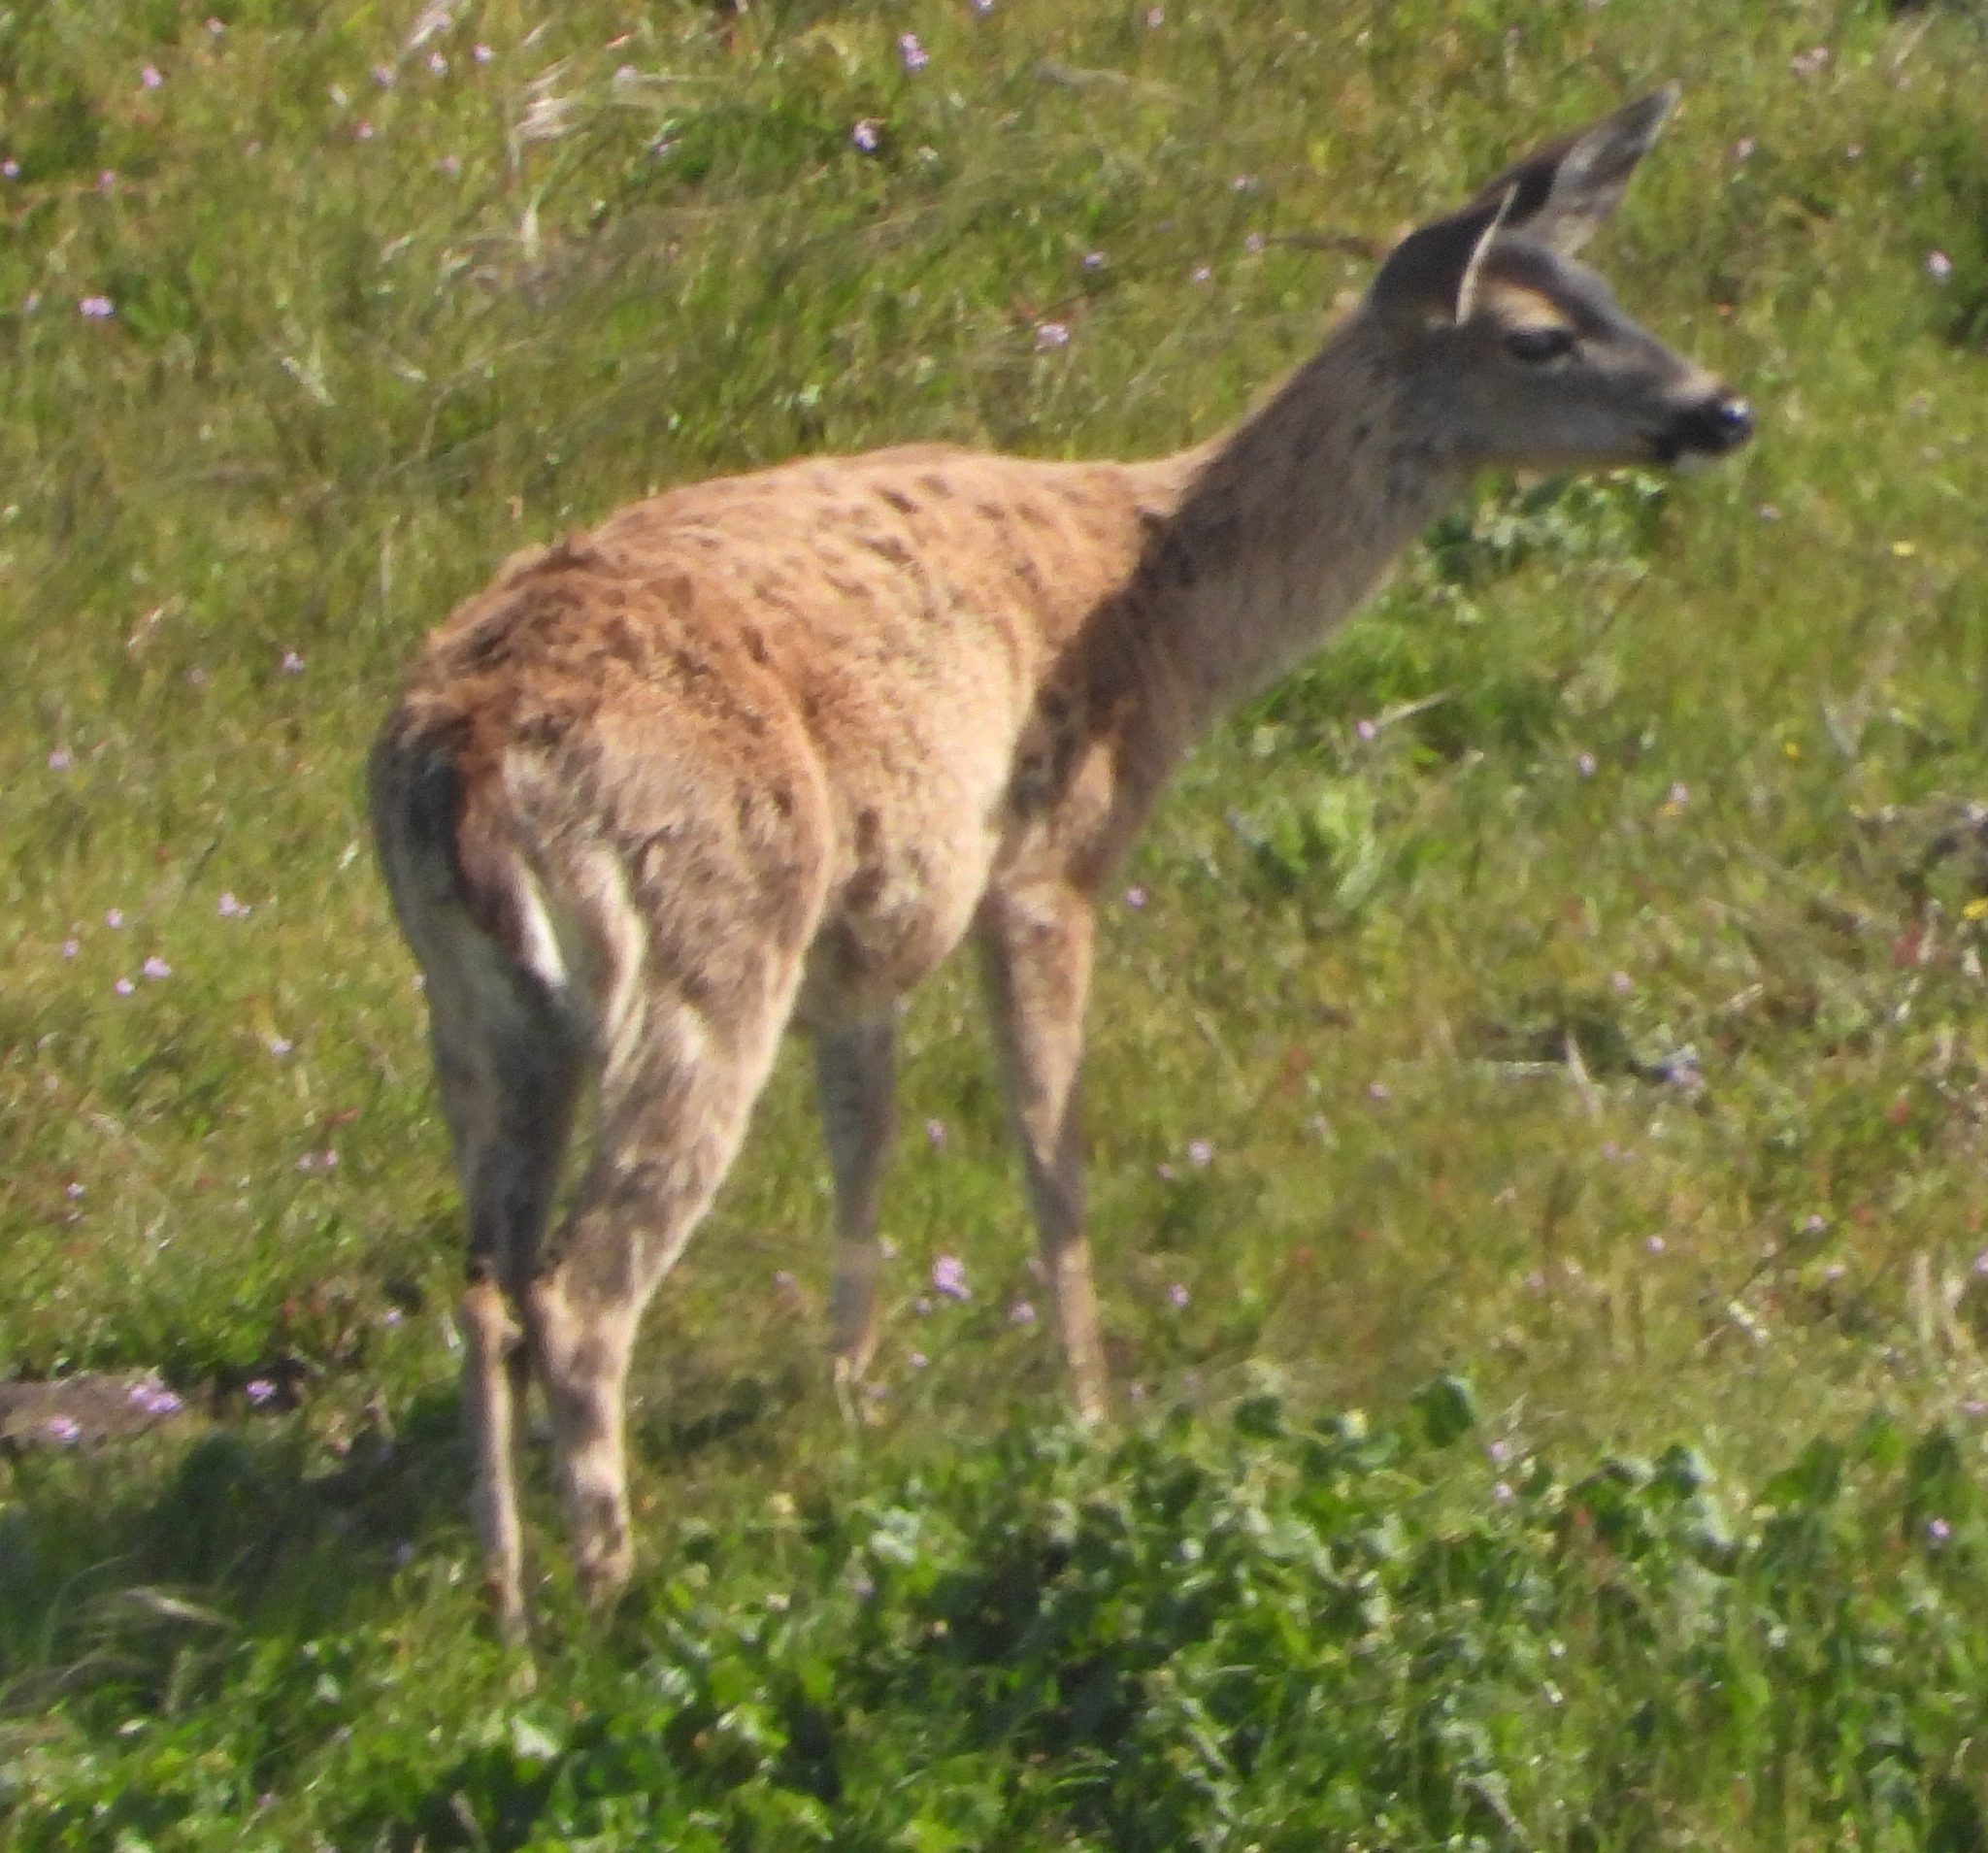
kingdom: Animalia
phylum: Chordata
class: Mammalia
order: Artiodactyla
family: Cervidae
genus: Odocoileus
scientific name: Odocoileus hemionus
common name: Mule deer
